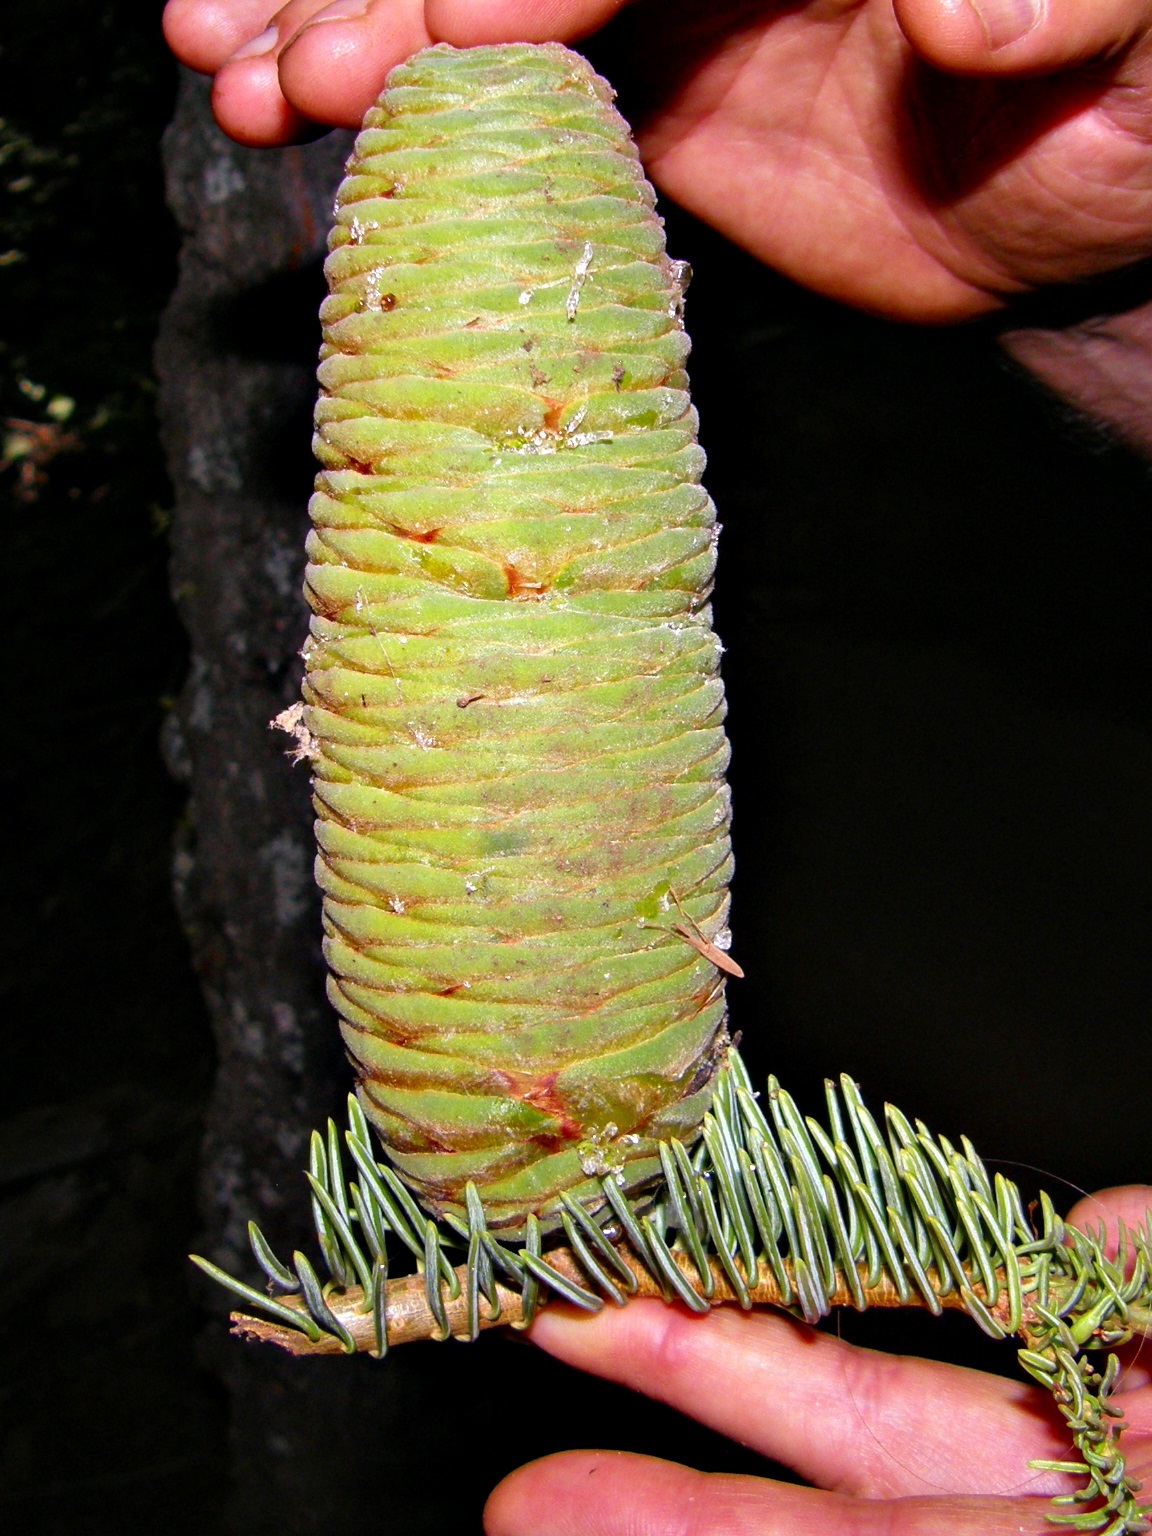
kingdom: Plantae
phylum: Tracheophyta
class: Pinopsida
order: Pinales
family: Pinaceae
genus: Abies
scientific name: Abies concolor
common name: Colorado fir
